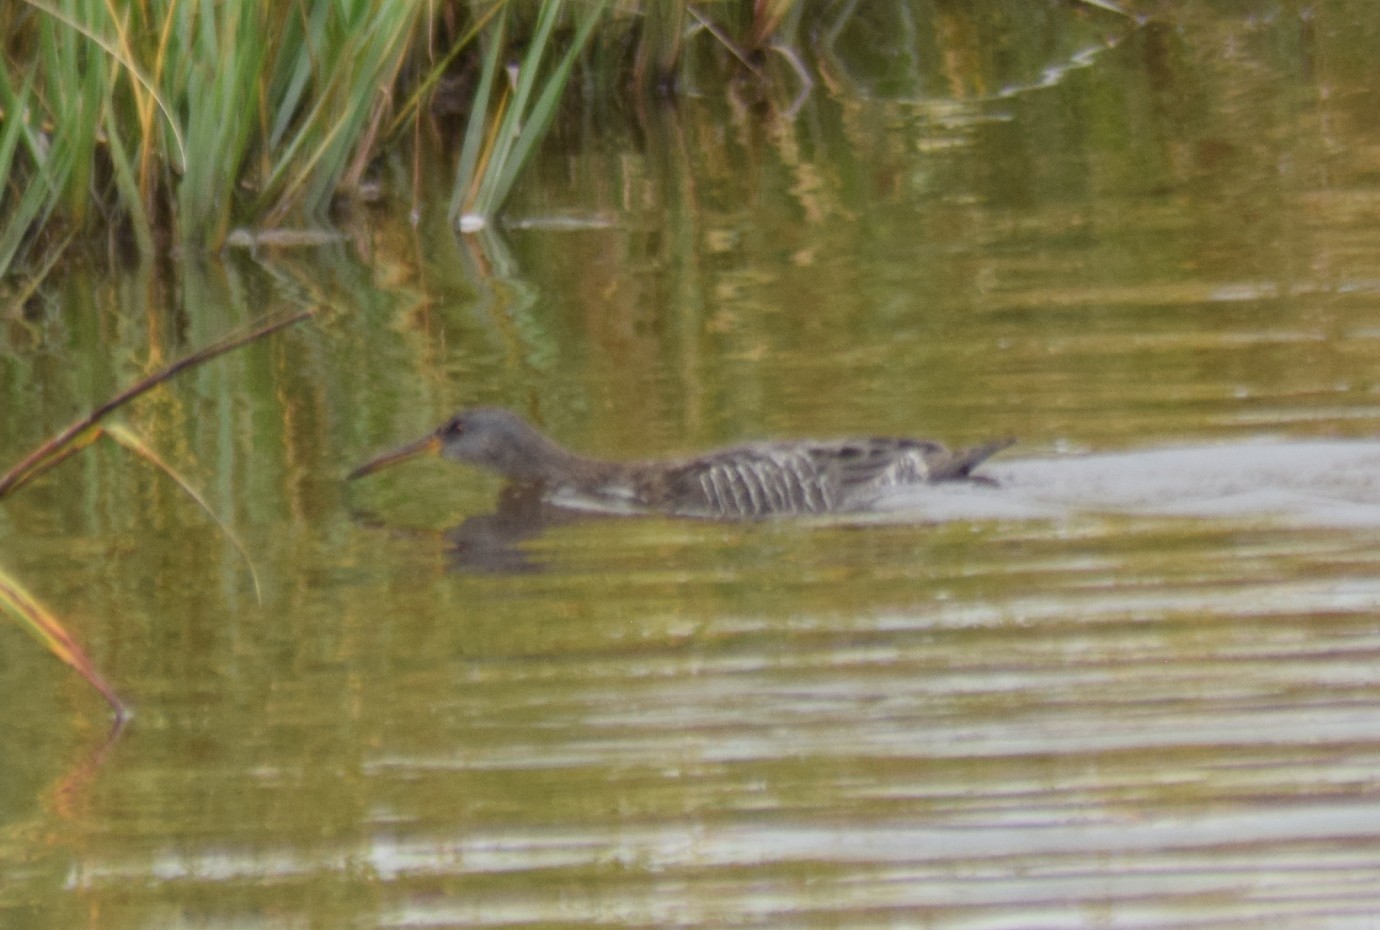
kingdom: Animalia
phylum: Chordata
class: Aves
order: Gruiformes
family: Rallidae
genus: Rallus
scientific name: Rallus crepitans
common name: Clapper rail
